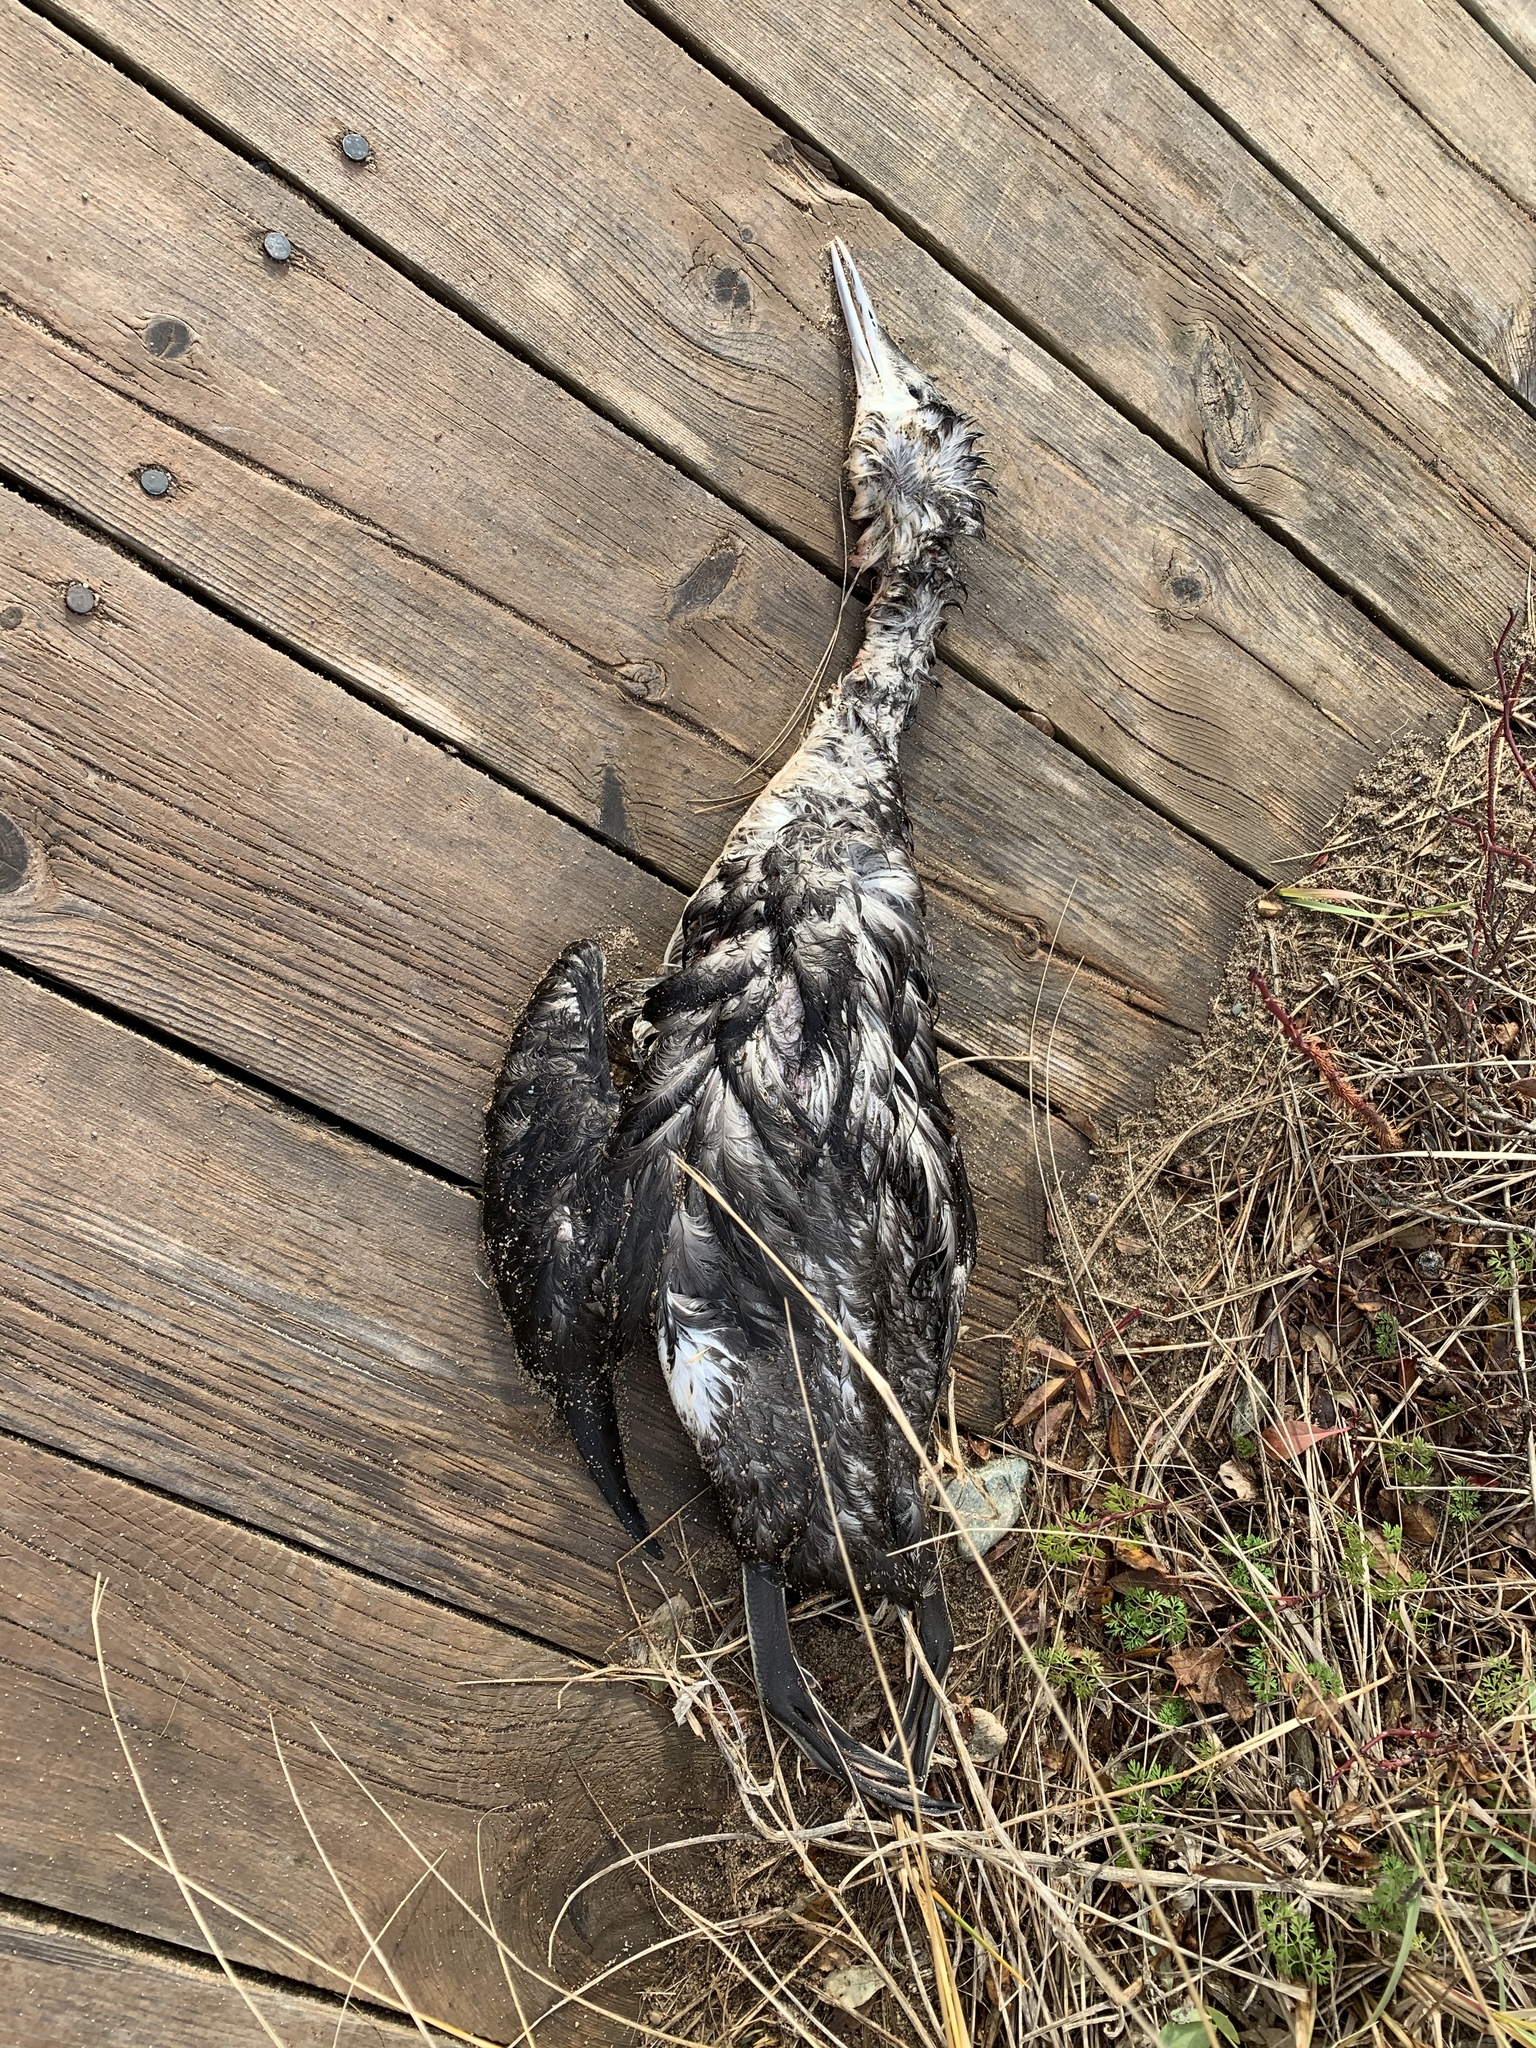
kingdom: Animalia
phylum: Chordata
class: Aves
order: Gaviiformes
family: Gaviidae
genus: Gavia
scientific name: Gavia stellata
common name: Red-throated loon
